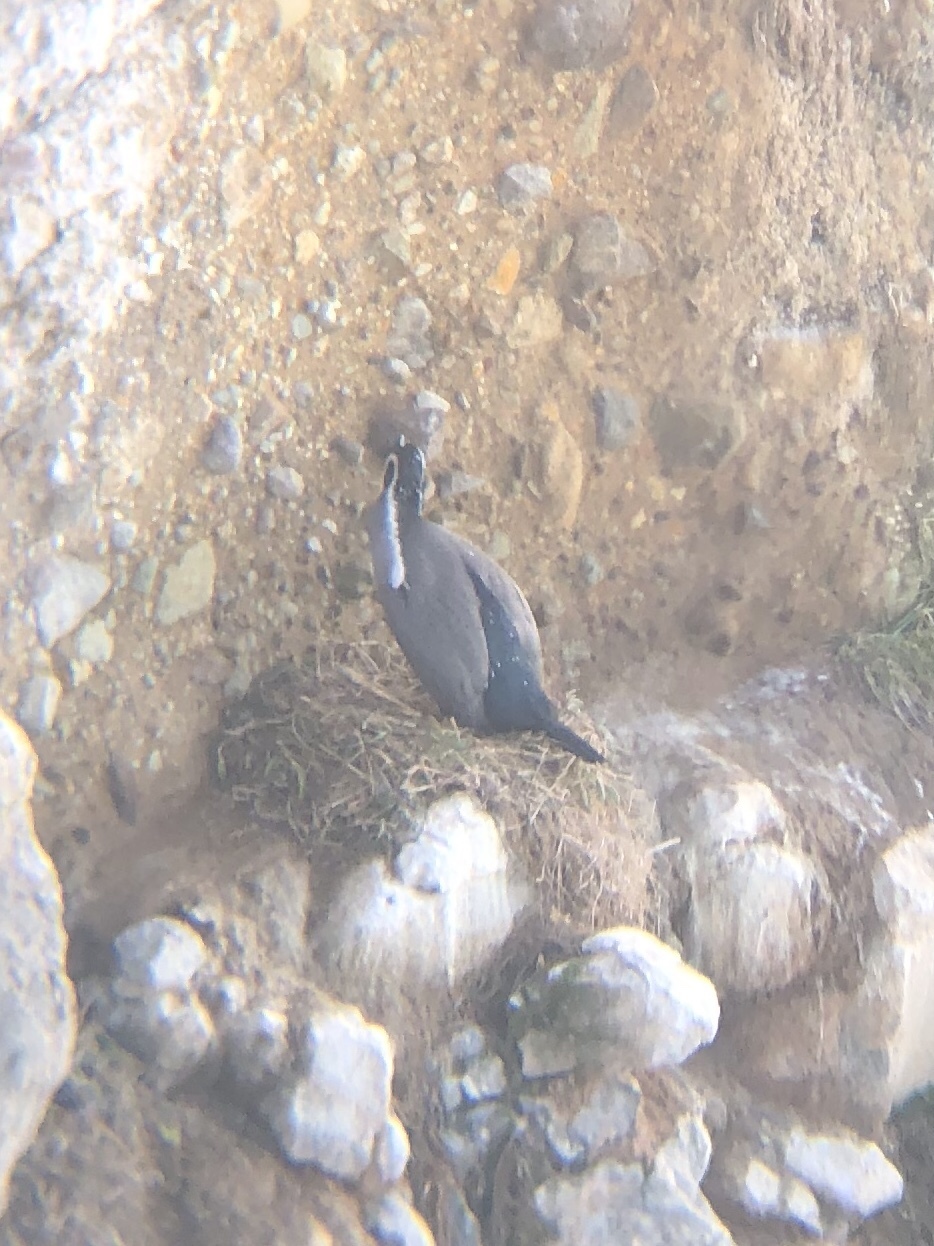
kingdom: Animalia
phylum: Chordata
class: Aves
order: Suliformes
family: Phalacrocoracidae
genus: Phalacrocorax
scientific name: Phalacrocorax punctatus
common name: Spotted shag
